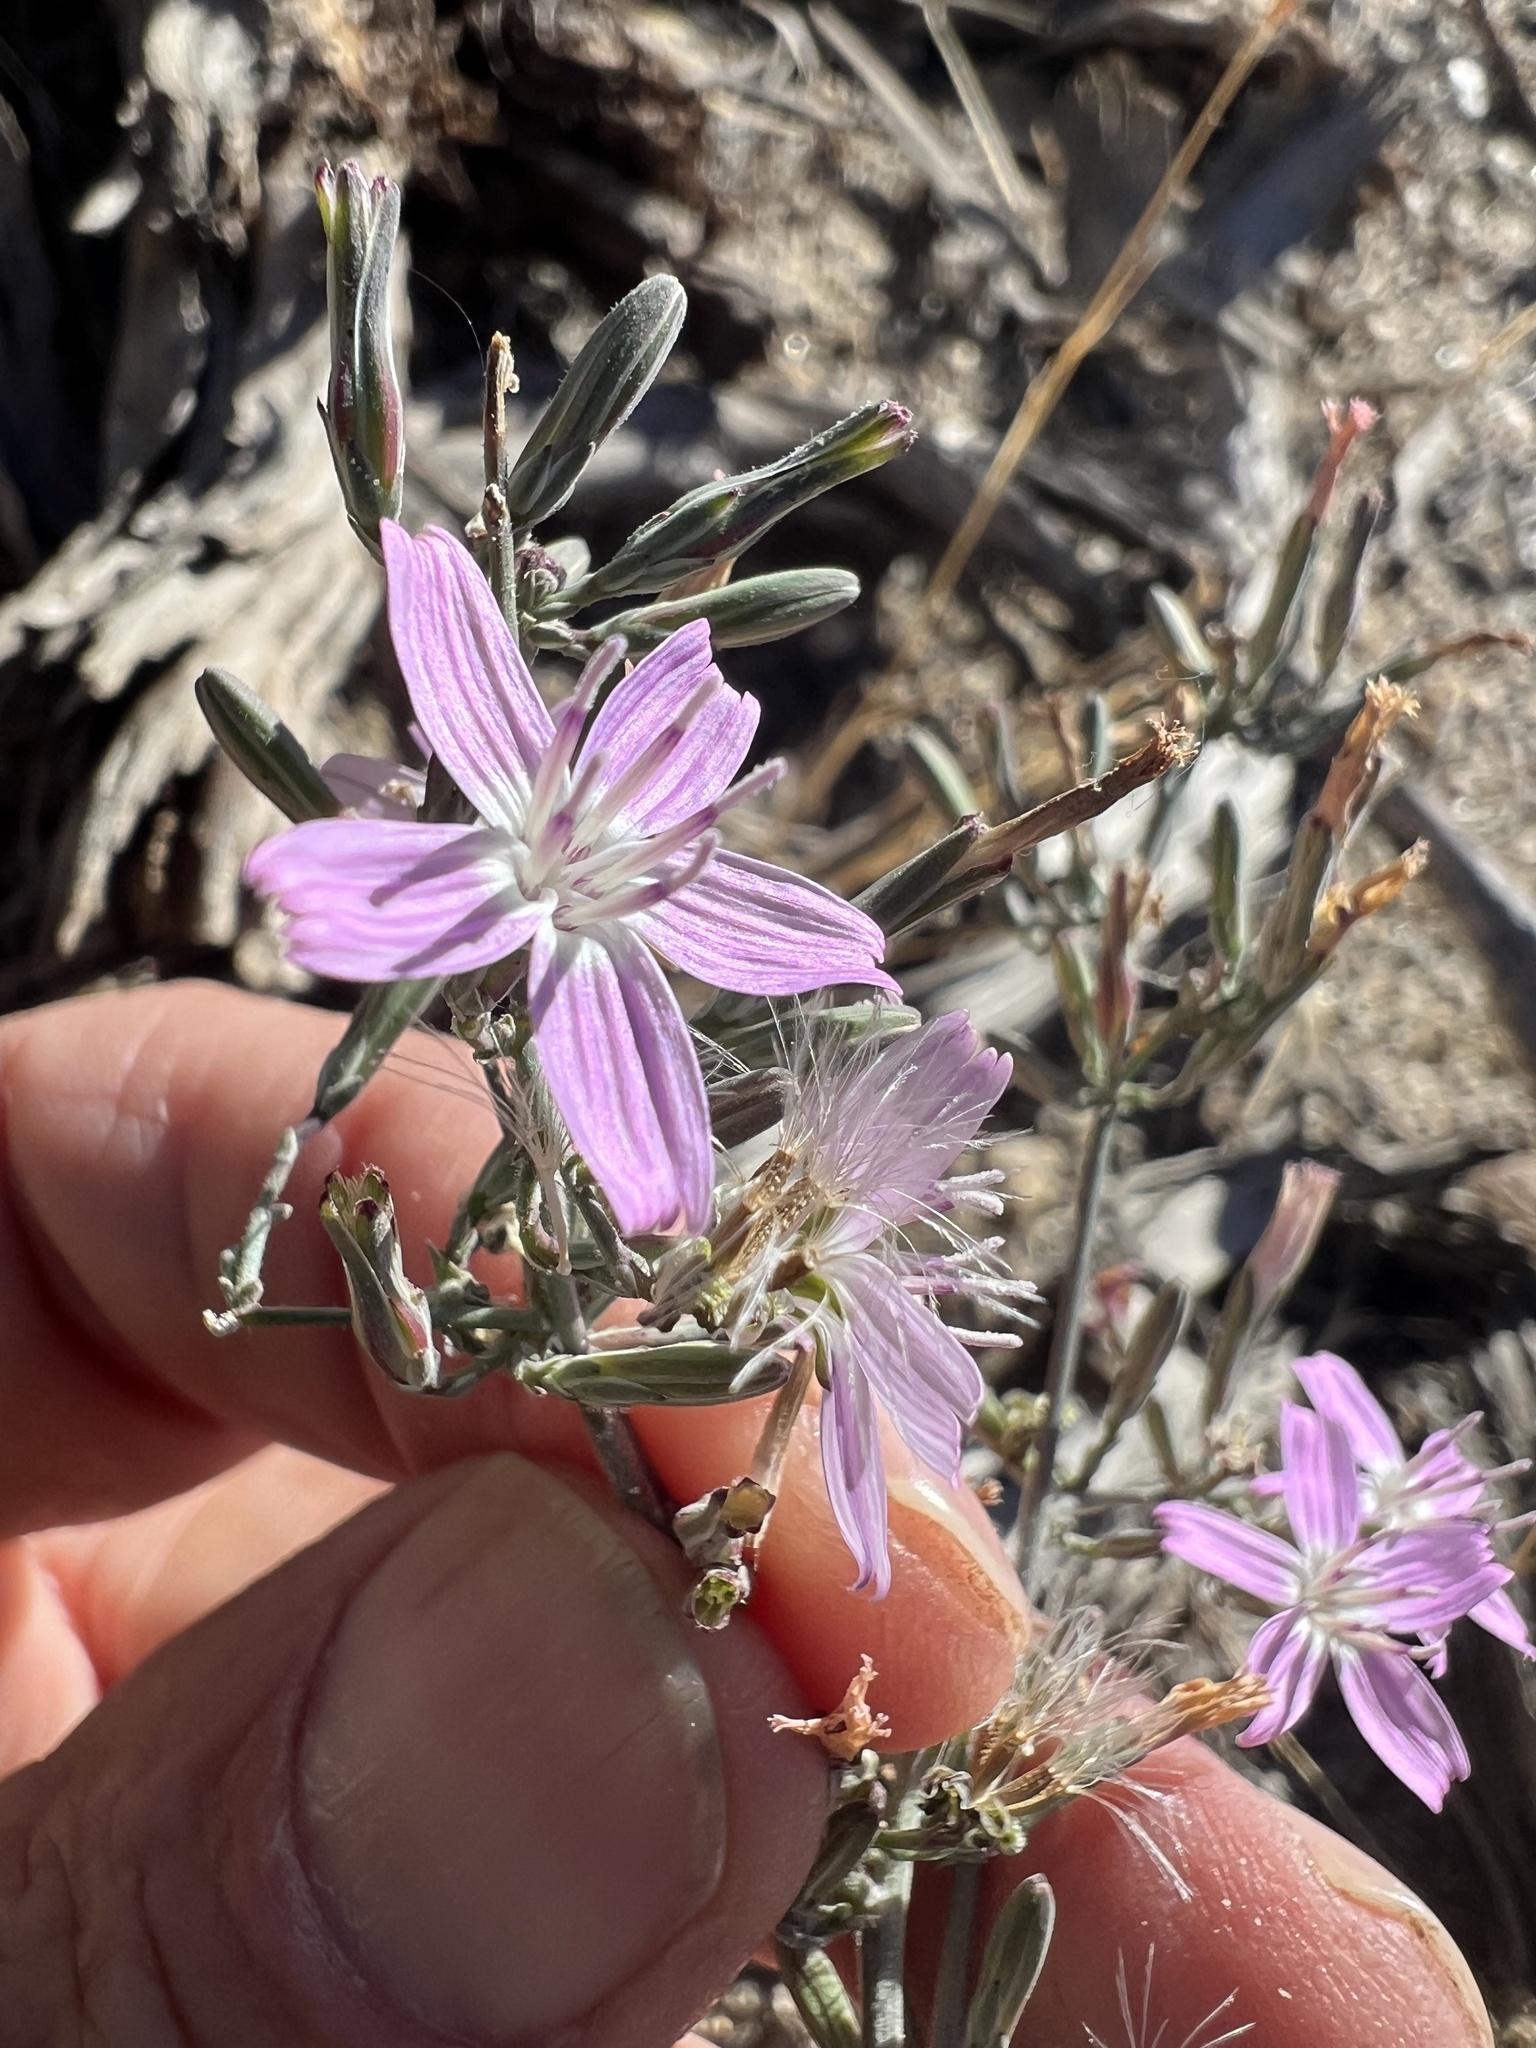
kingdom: Plantae
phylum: Tracheophyta
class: Magnoliopsida
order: Asterales
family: Asteraceae
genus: Stephanomeria
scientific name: Stephanomeria exigua
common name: Small wirelettuce
